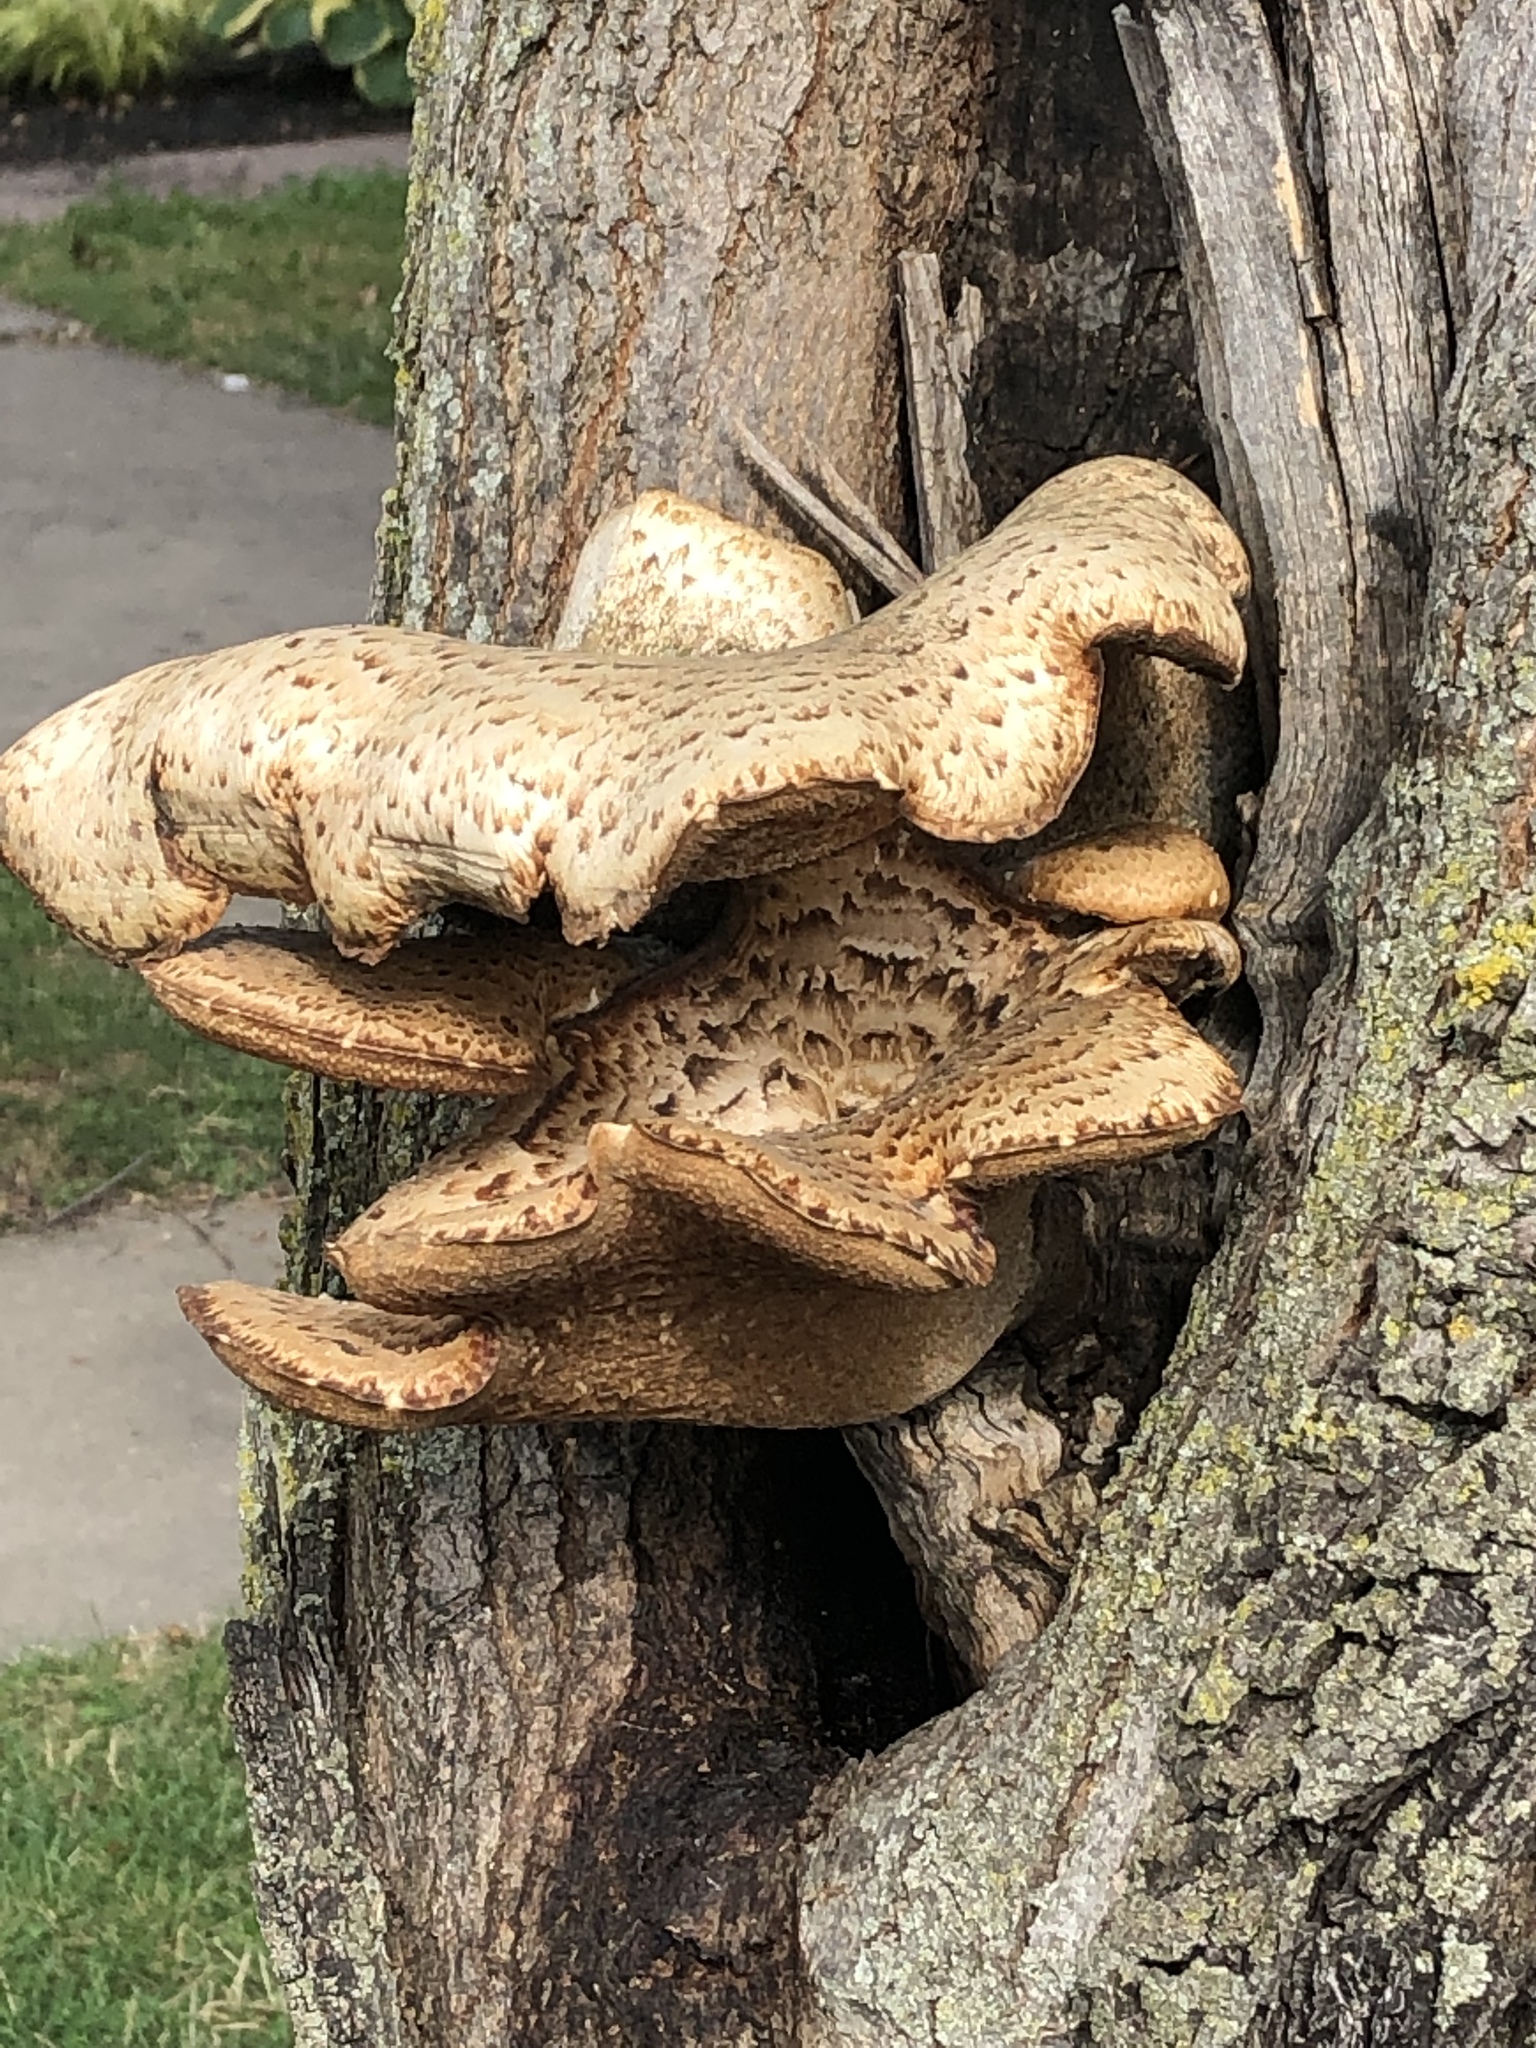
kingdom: Fungi
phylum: Basidiomycota
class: Agaricomycetes
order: Polyporales
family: Polyporaceae
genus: Cerioporus
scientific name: Cerioporus squamosus
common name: Dryad's saddle
